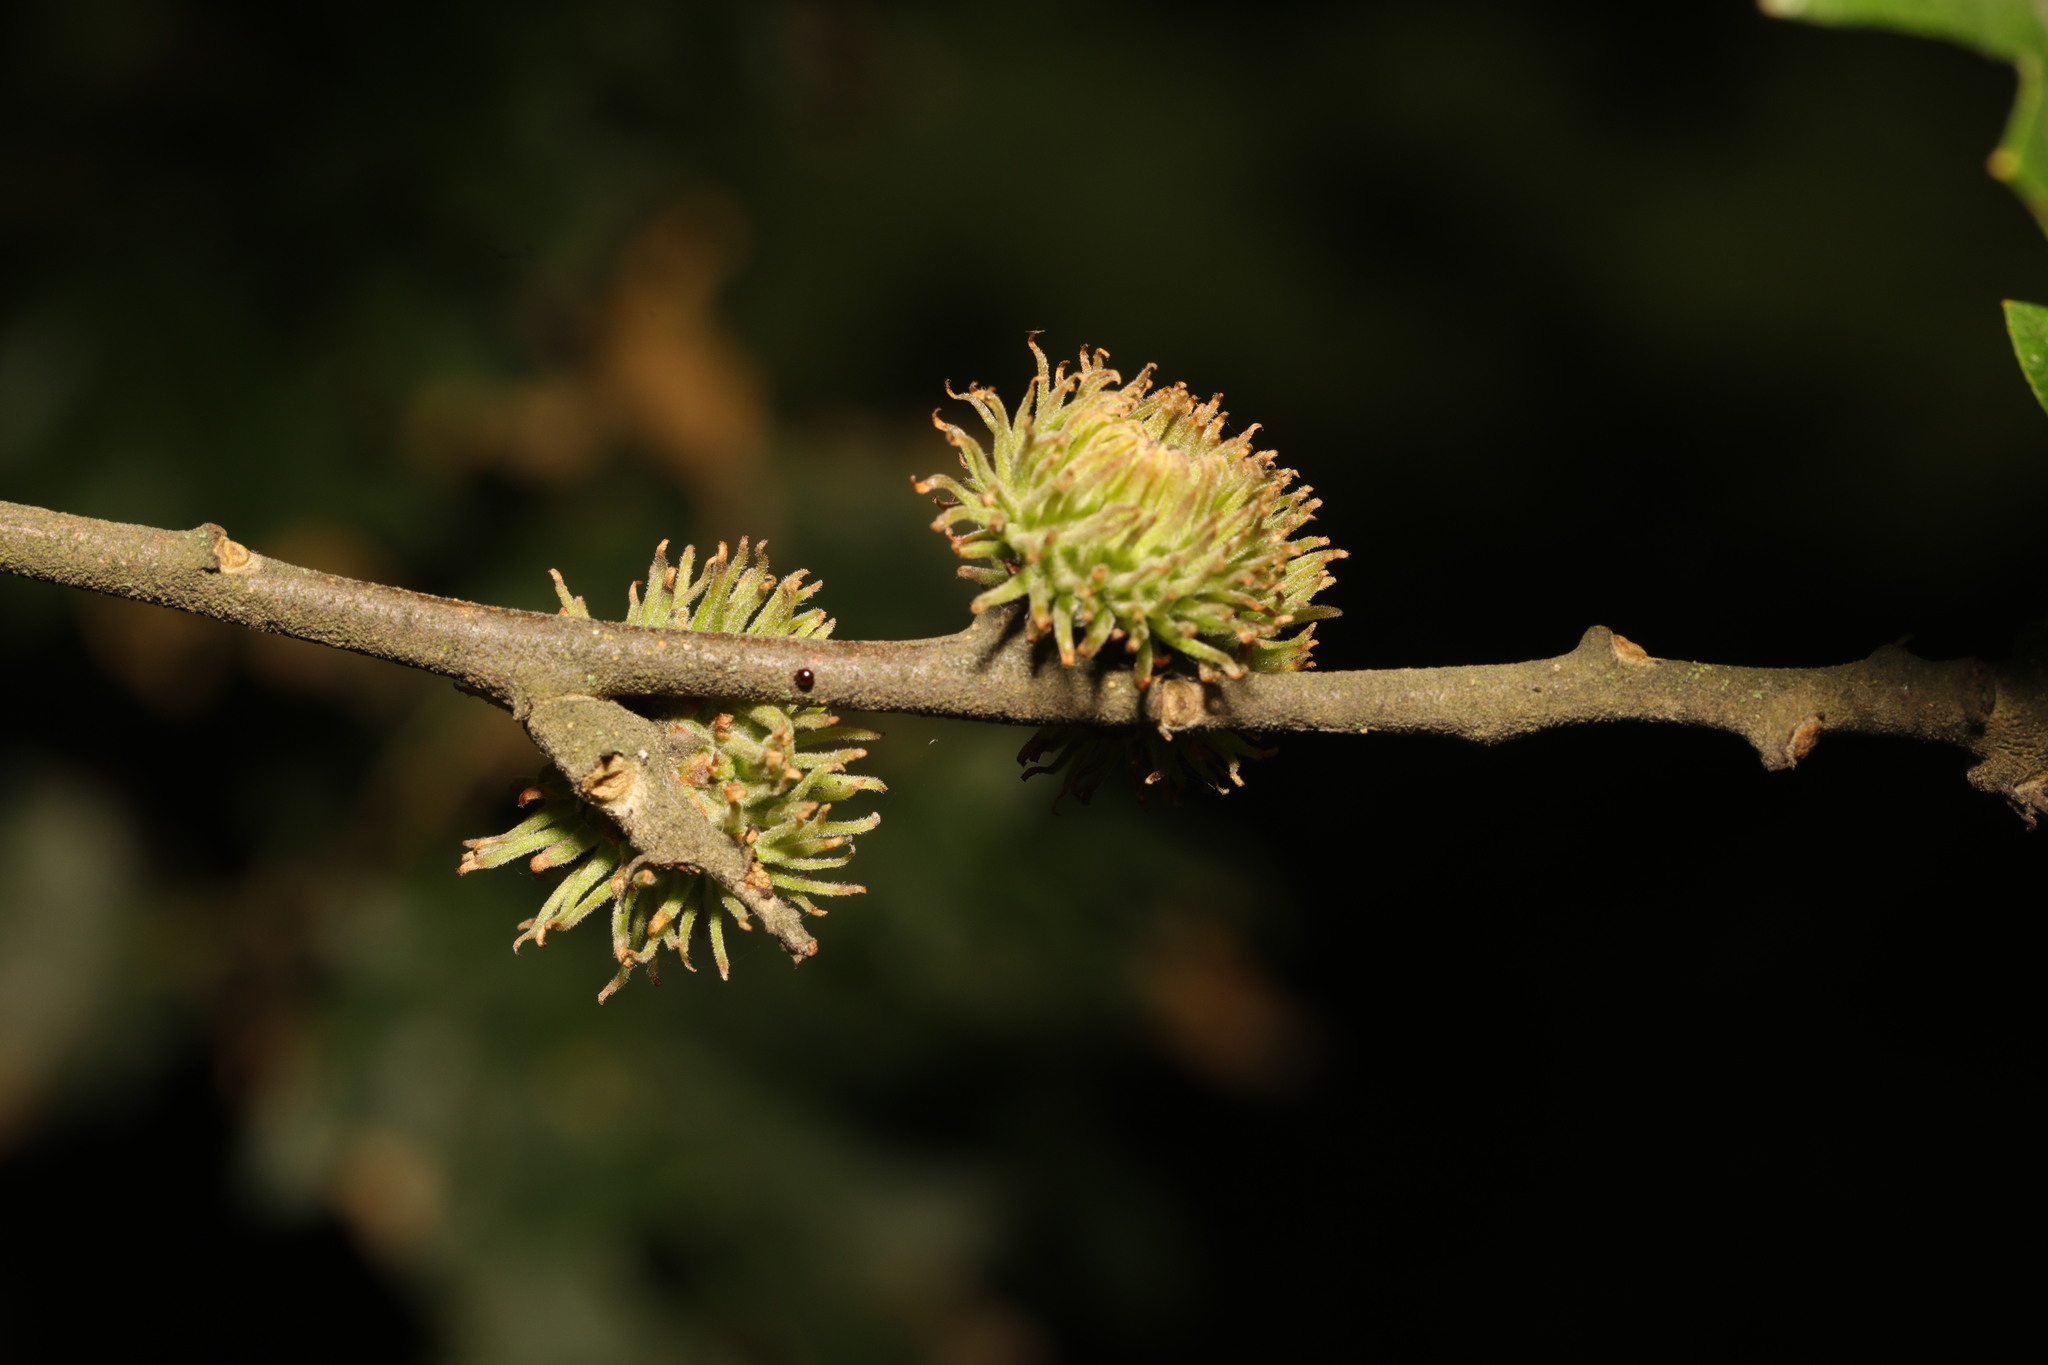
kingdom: Plantae
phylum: Tracheophyta
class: Magnoliopsida
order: Fagales
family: Fagaceae
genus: Quercus
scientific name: Quercus cerris
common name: Turkey oak
